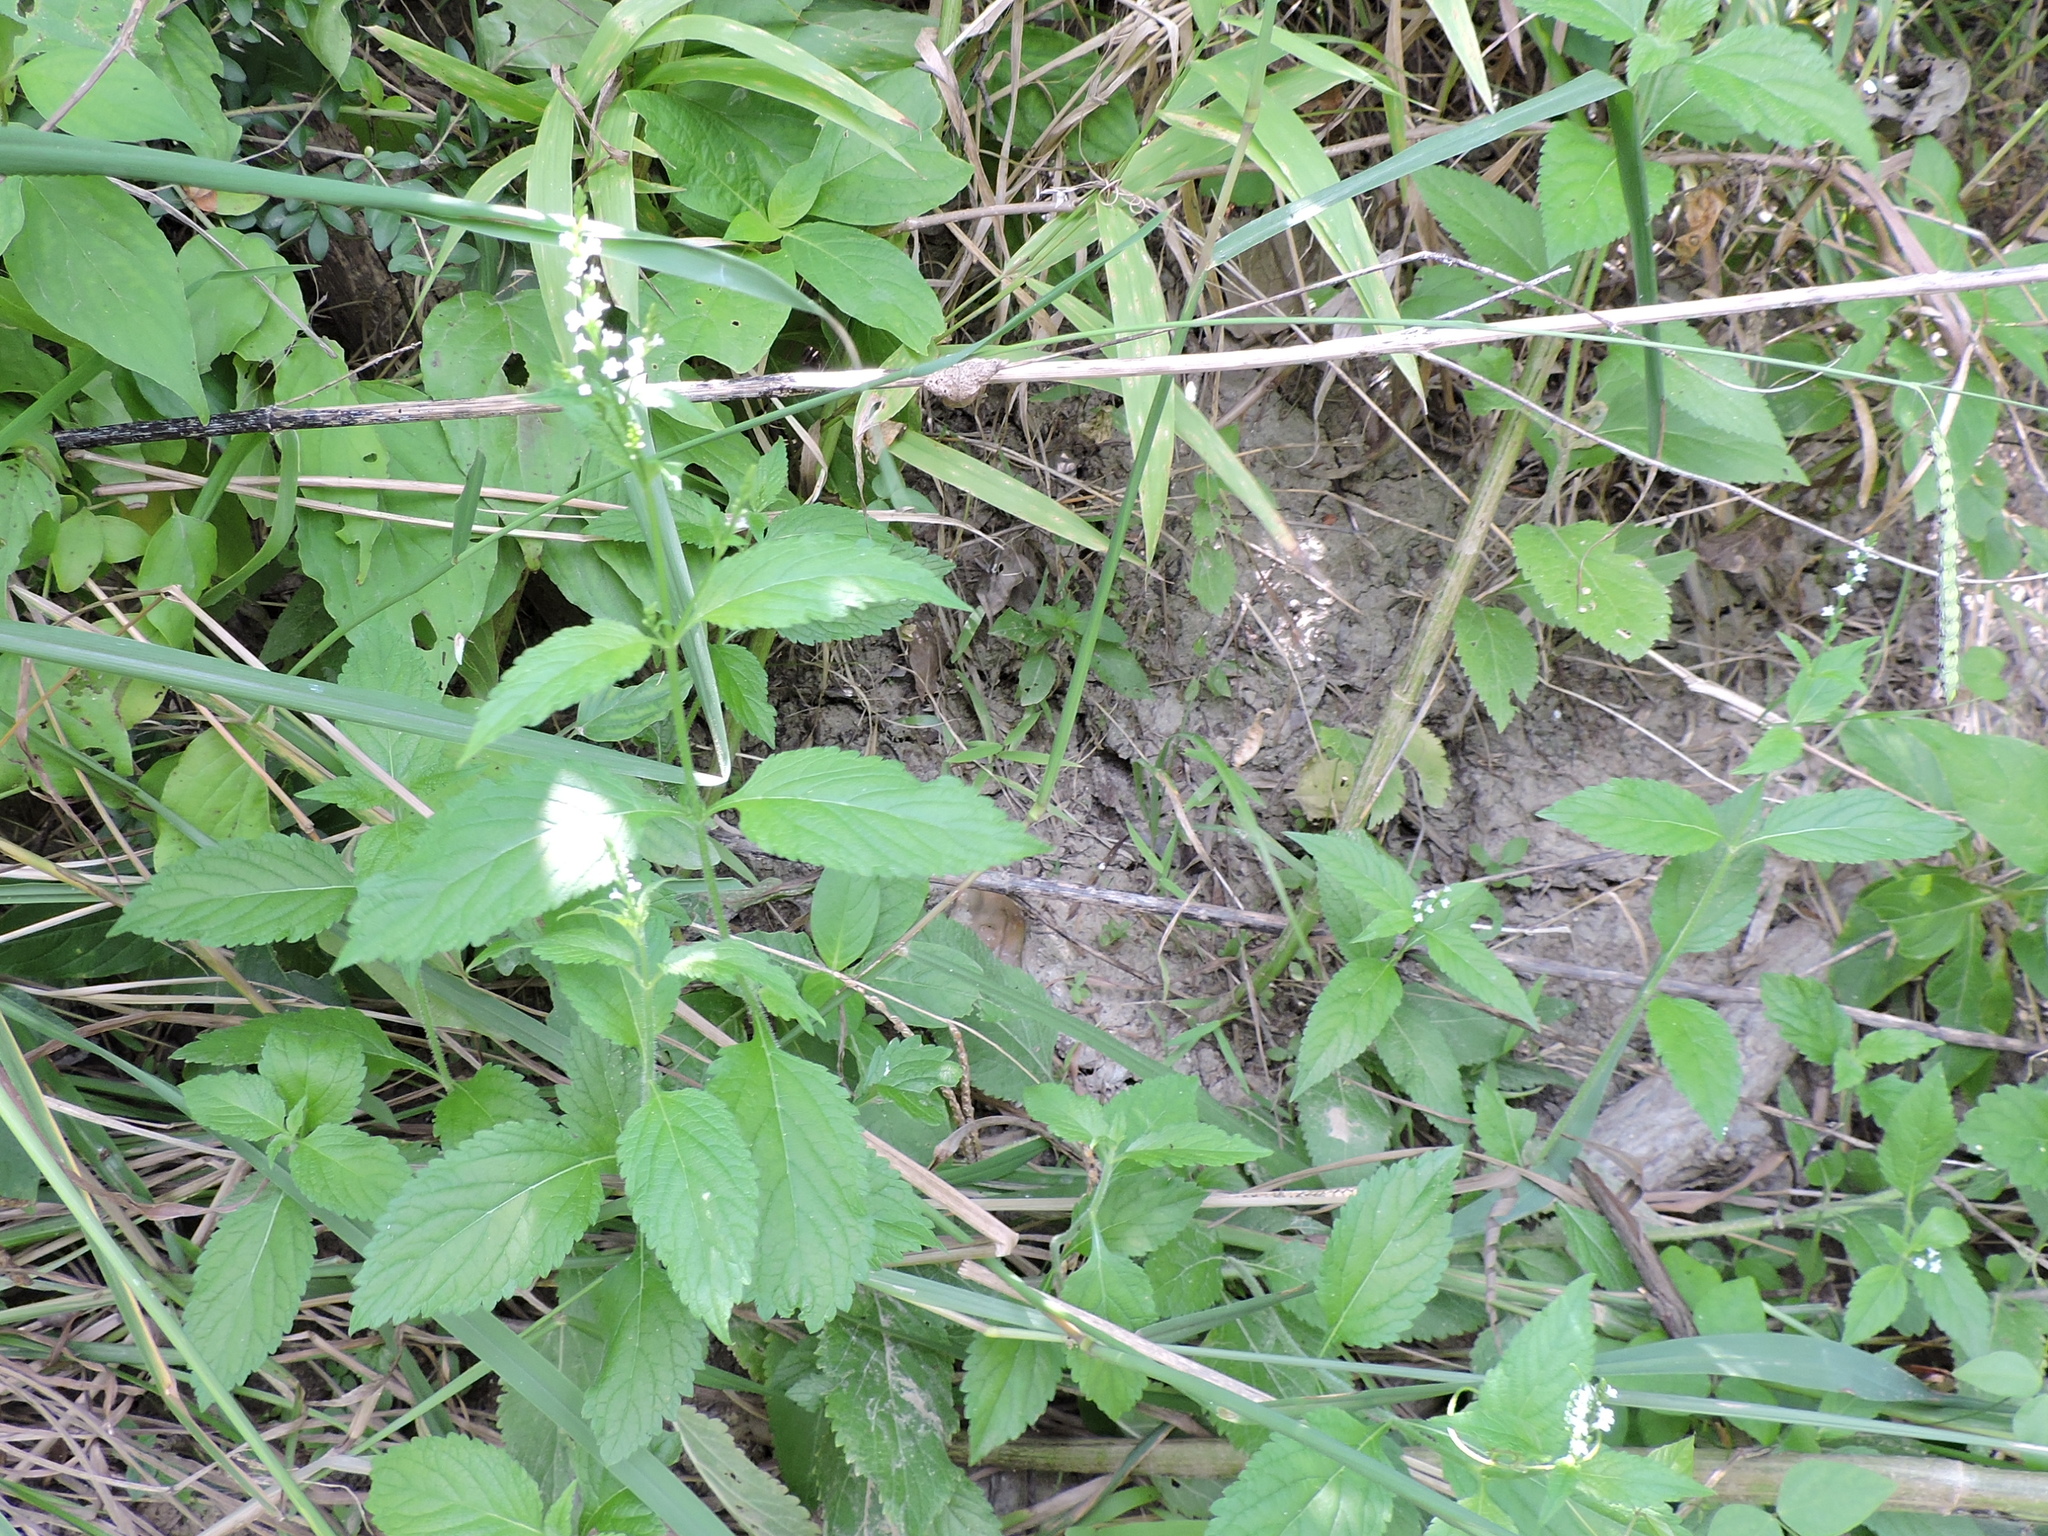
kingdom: Plantae
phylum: Tracheophyta
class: Magnoliopsida
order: Lamiales
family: Verbenaceae
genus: Verbena
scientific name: Verbena urticifolia
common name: Nettle-leaved vervain
